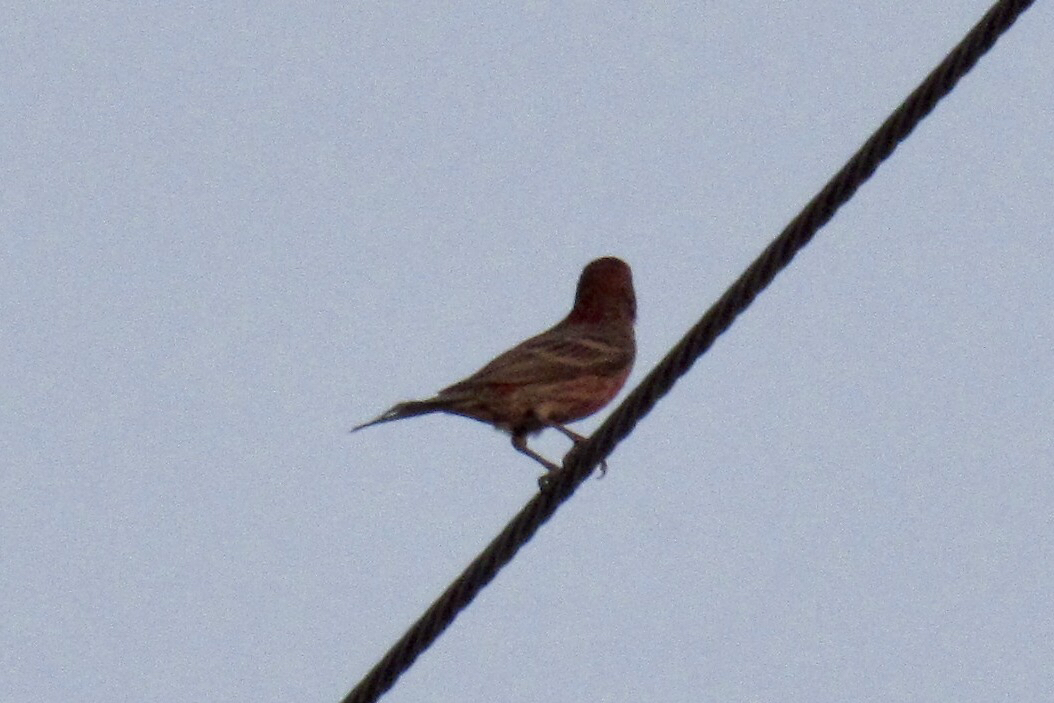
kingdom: Animalia
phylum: Chordata
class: Aves
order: Passeriformes
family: Fringillidae
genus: Haemorhous
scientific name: Haemorhous mexicanus
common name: House finch
